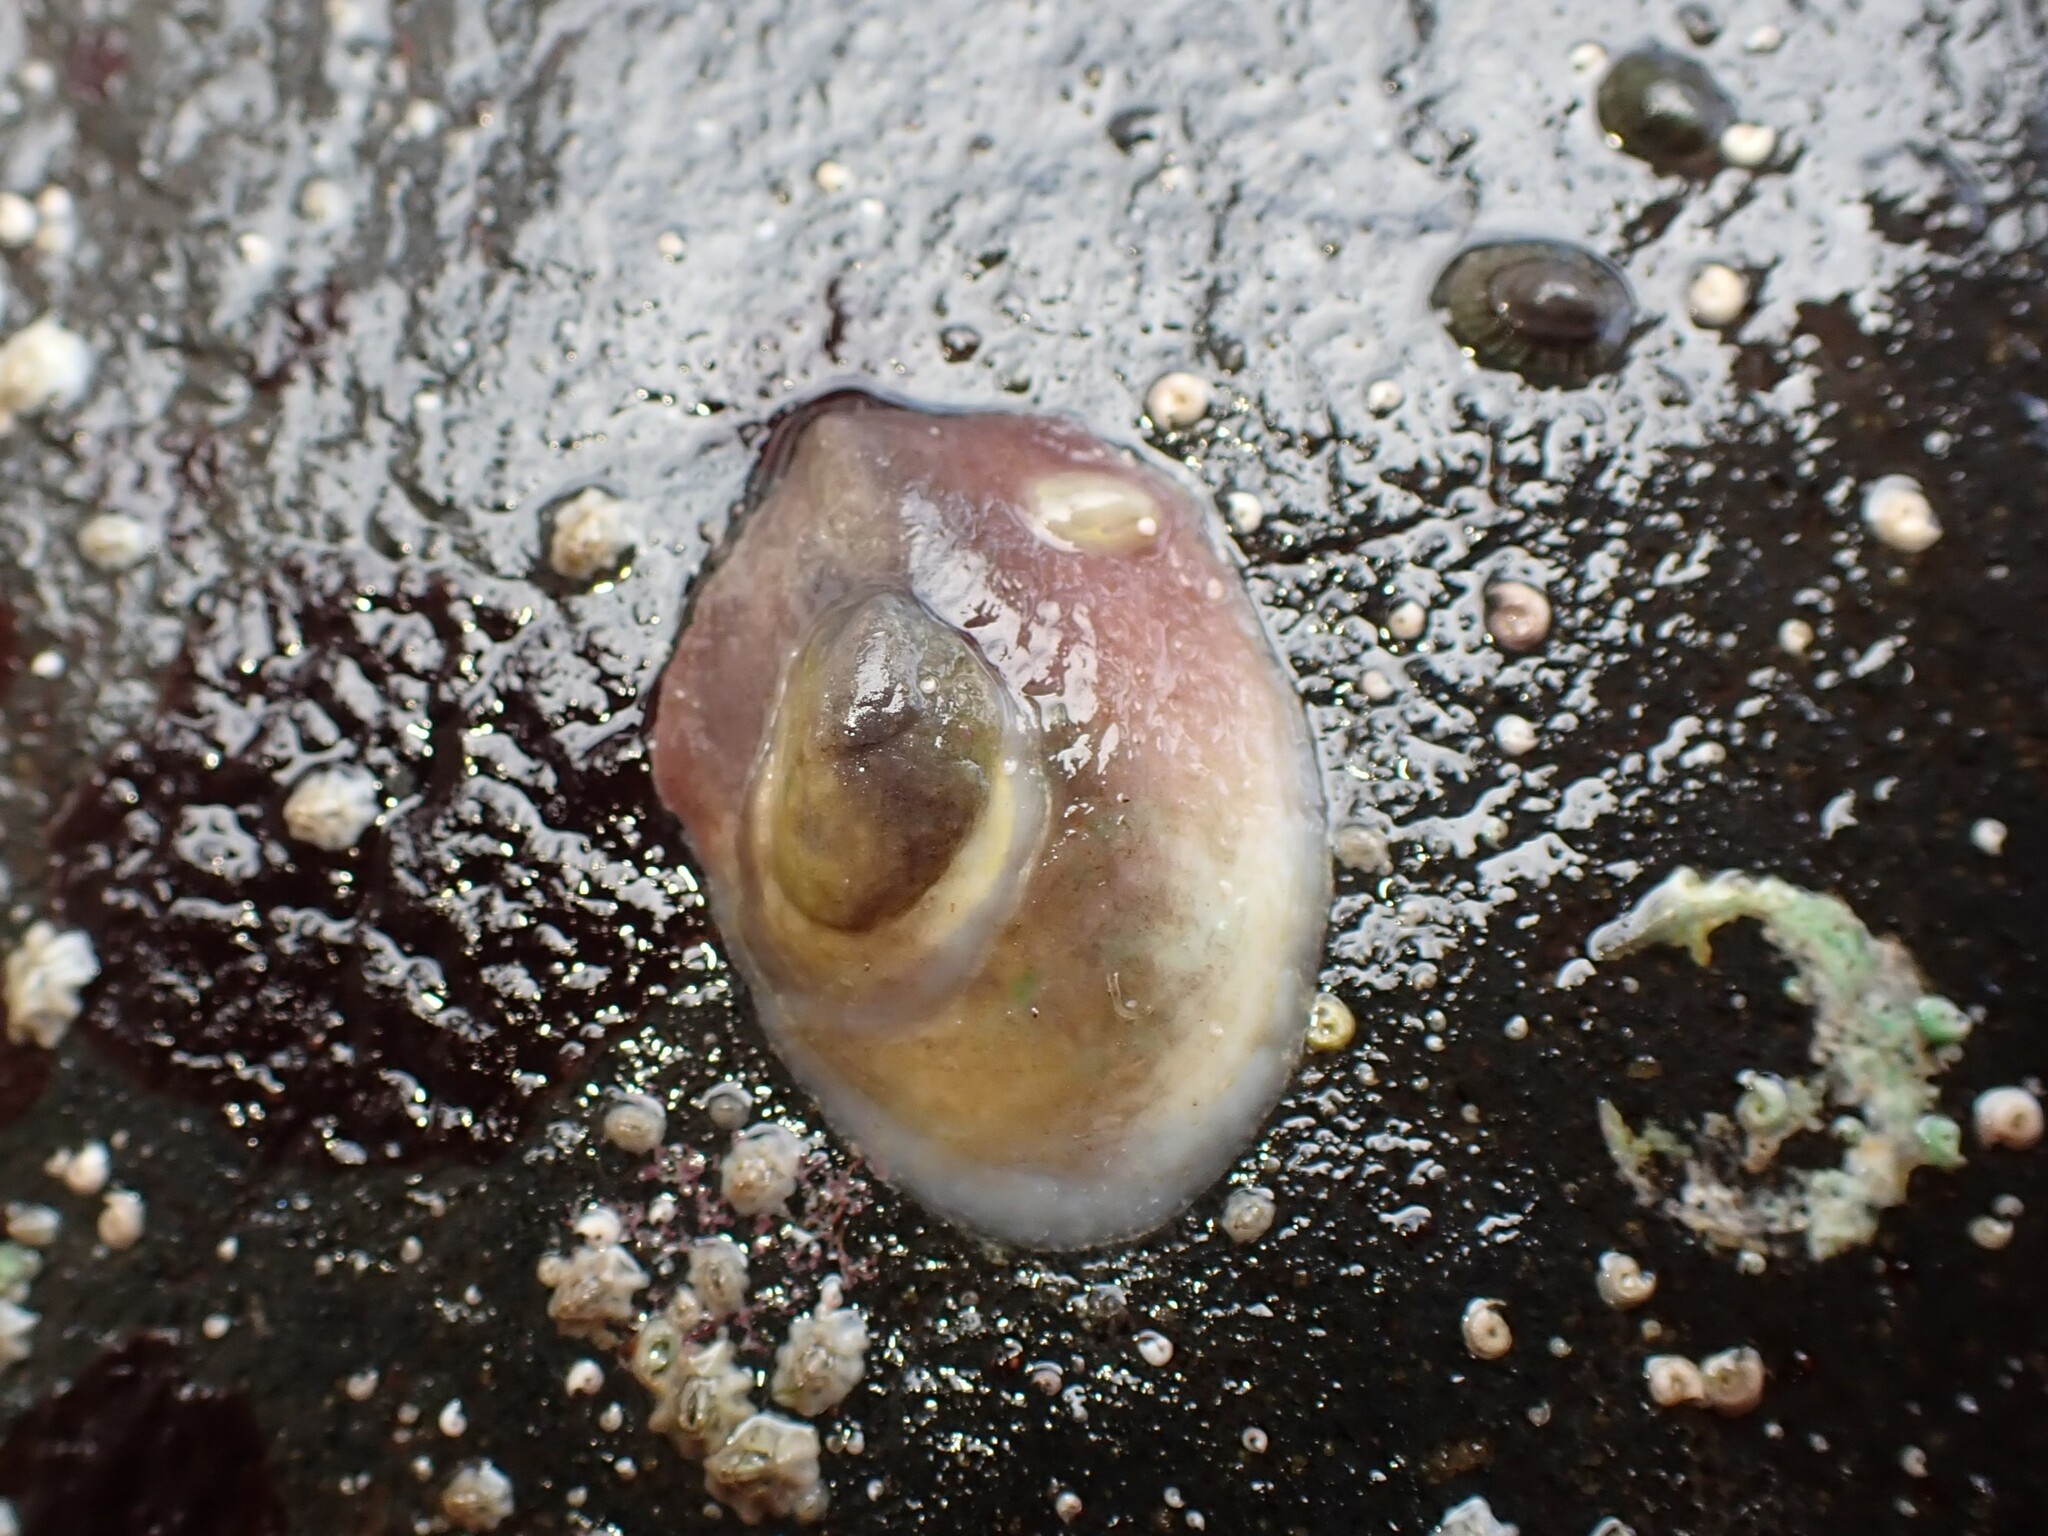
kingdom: Animalia
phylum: Mollusca
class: Gastropoda
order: Littorinimorpha
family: Calyptraeidae
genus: Maoricrypta
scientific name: Maoricrypta monoxyla
